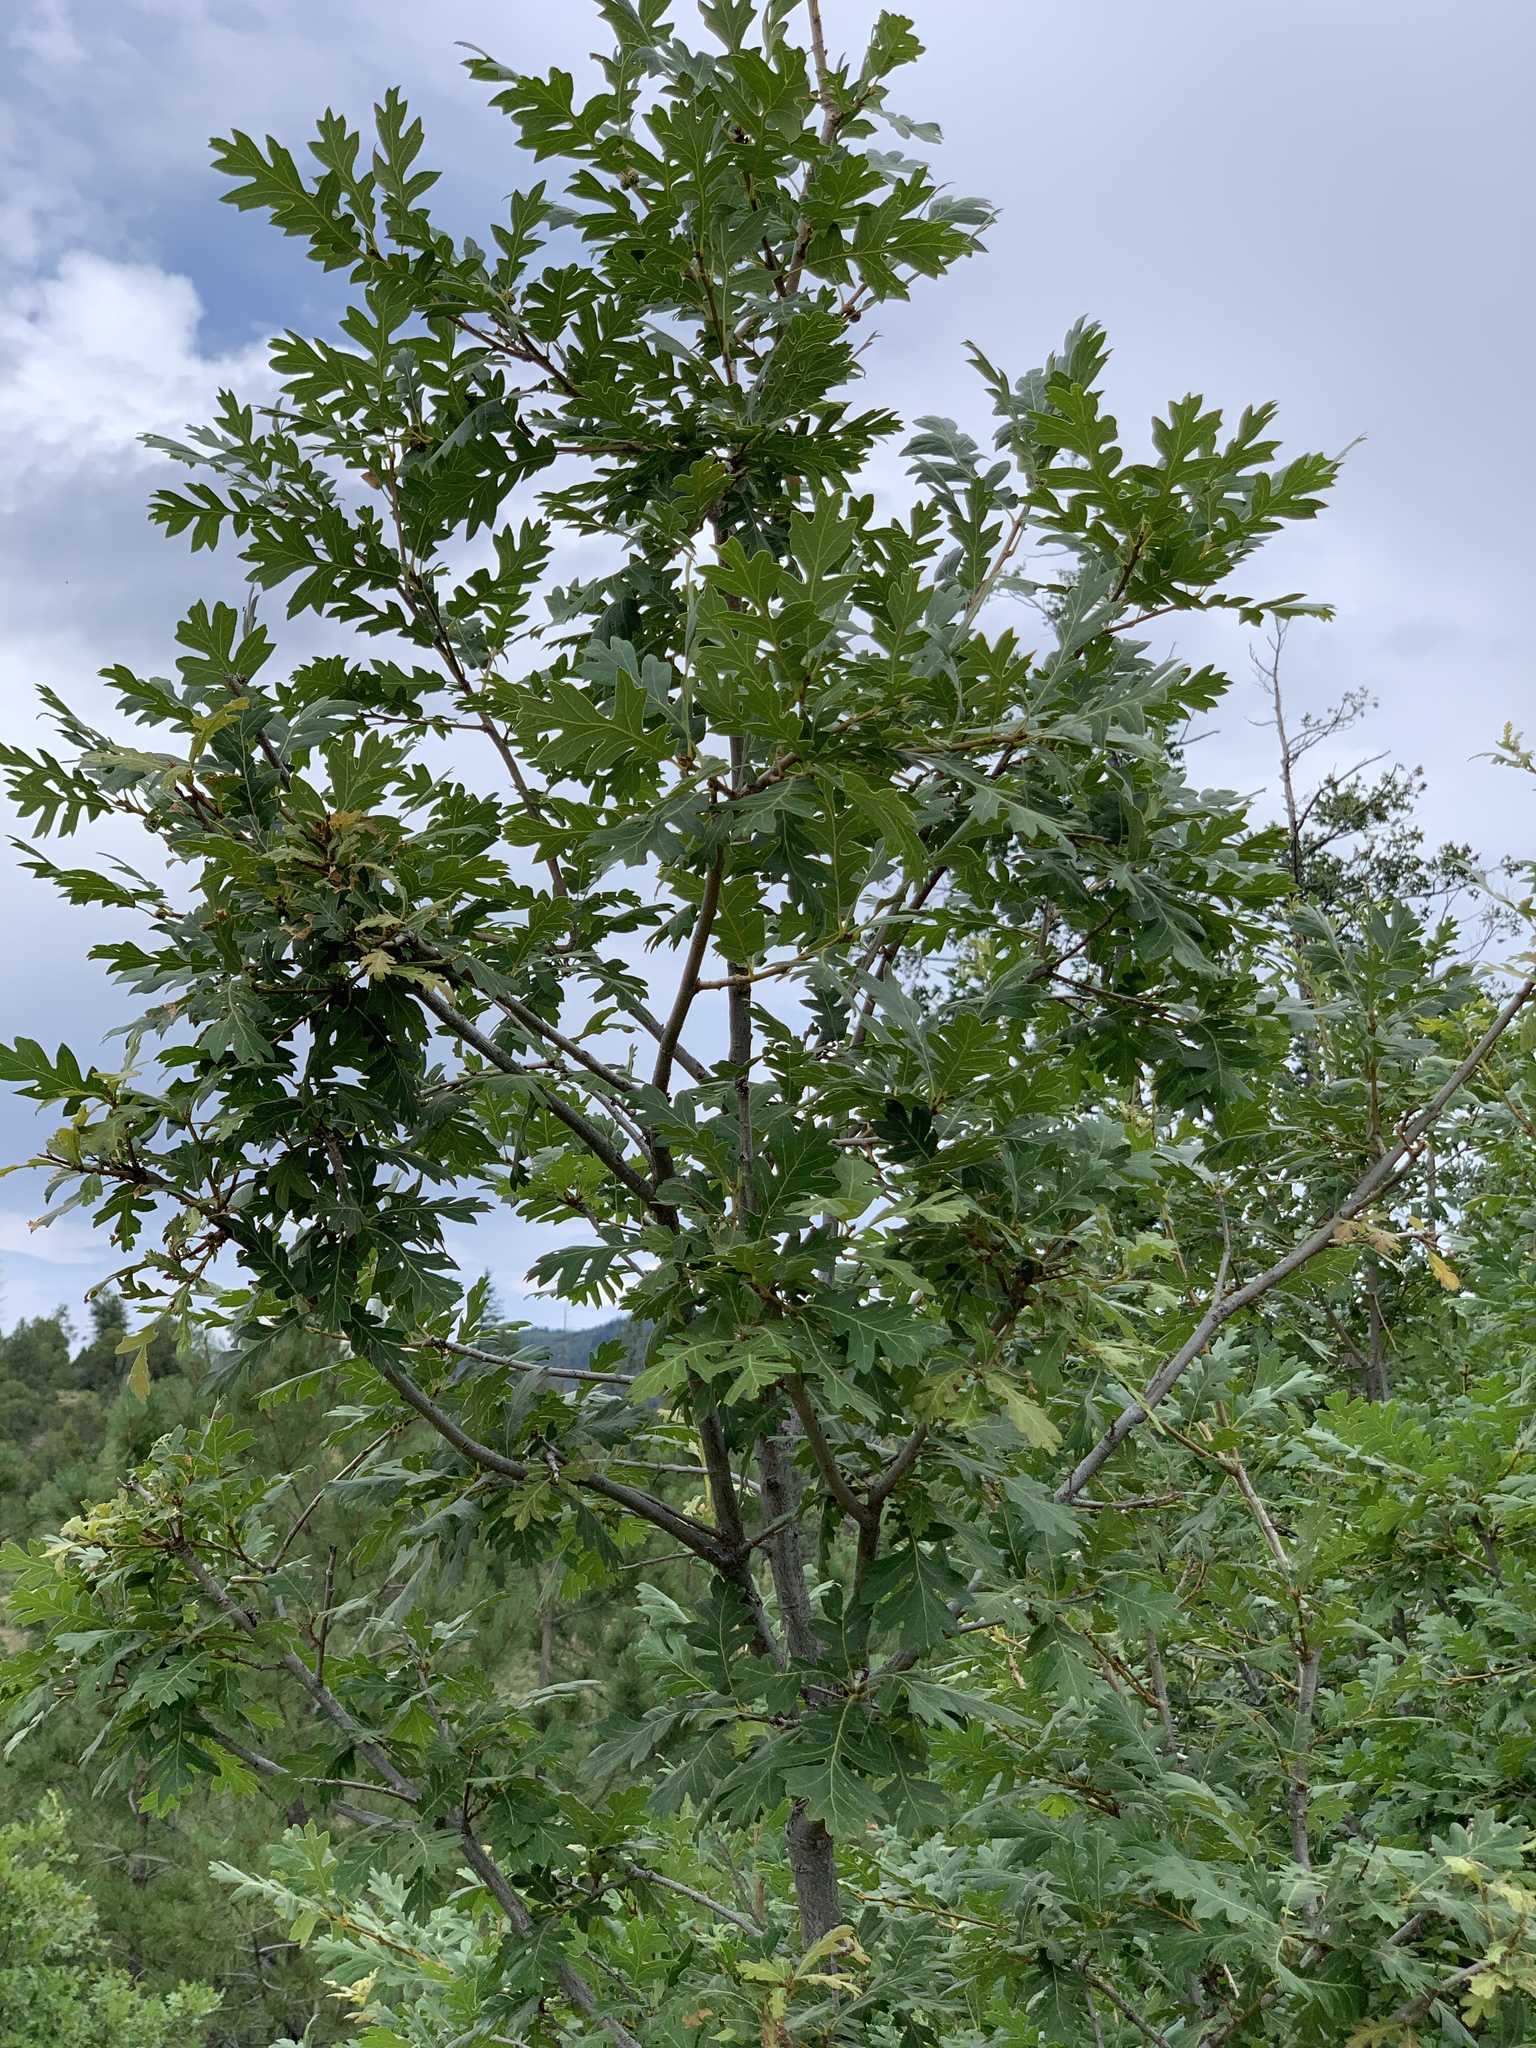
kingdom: Plantae
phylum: Tracheophyta
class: Magnoliopsida
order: Fabales
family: Fabaceae
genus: Robinia
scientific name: Robinia neomexicana
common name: New mexico locust
